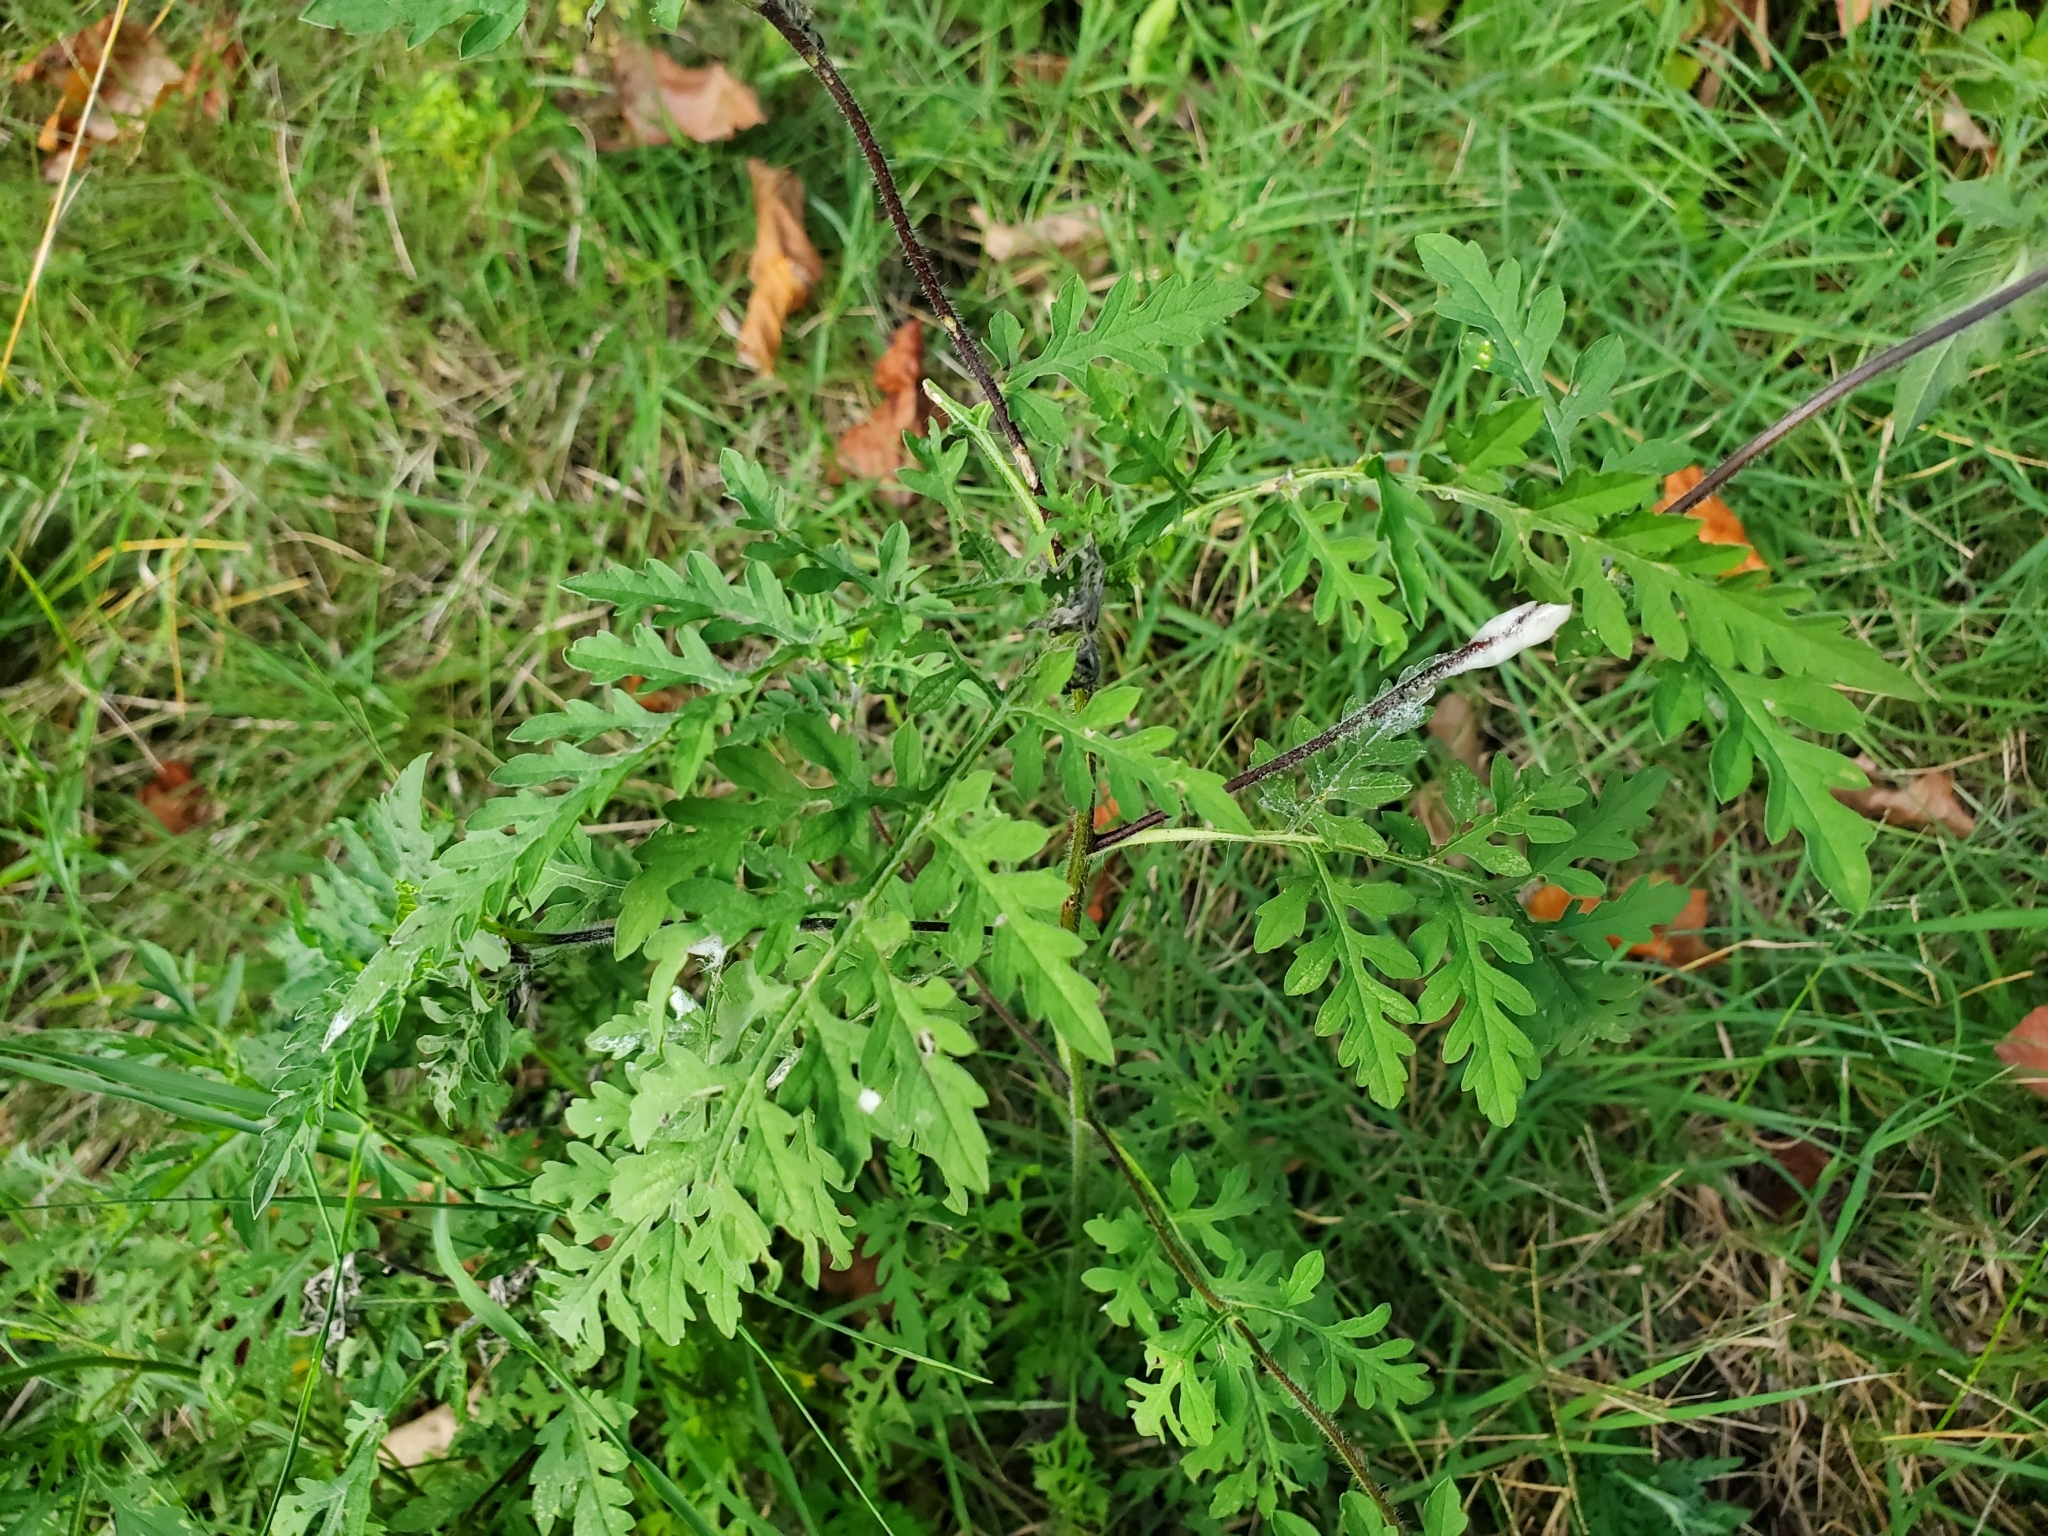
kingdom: Plantae
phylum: Tracheophyta
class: Magnoliopsida
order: Asterales
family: Asteraceae
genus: Ambrosia
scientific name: Ambrosia artemisiifolia
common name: Annual ragweed
